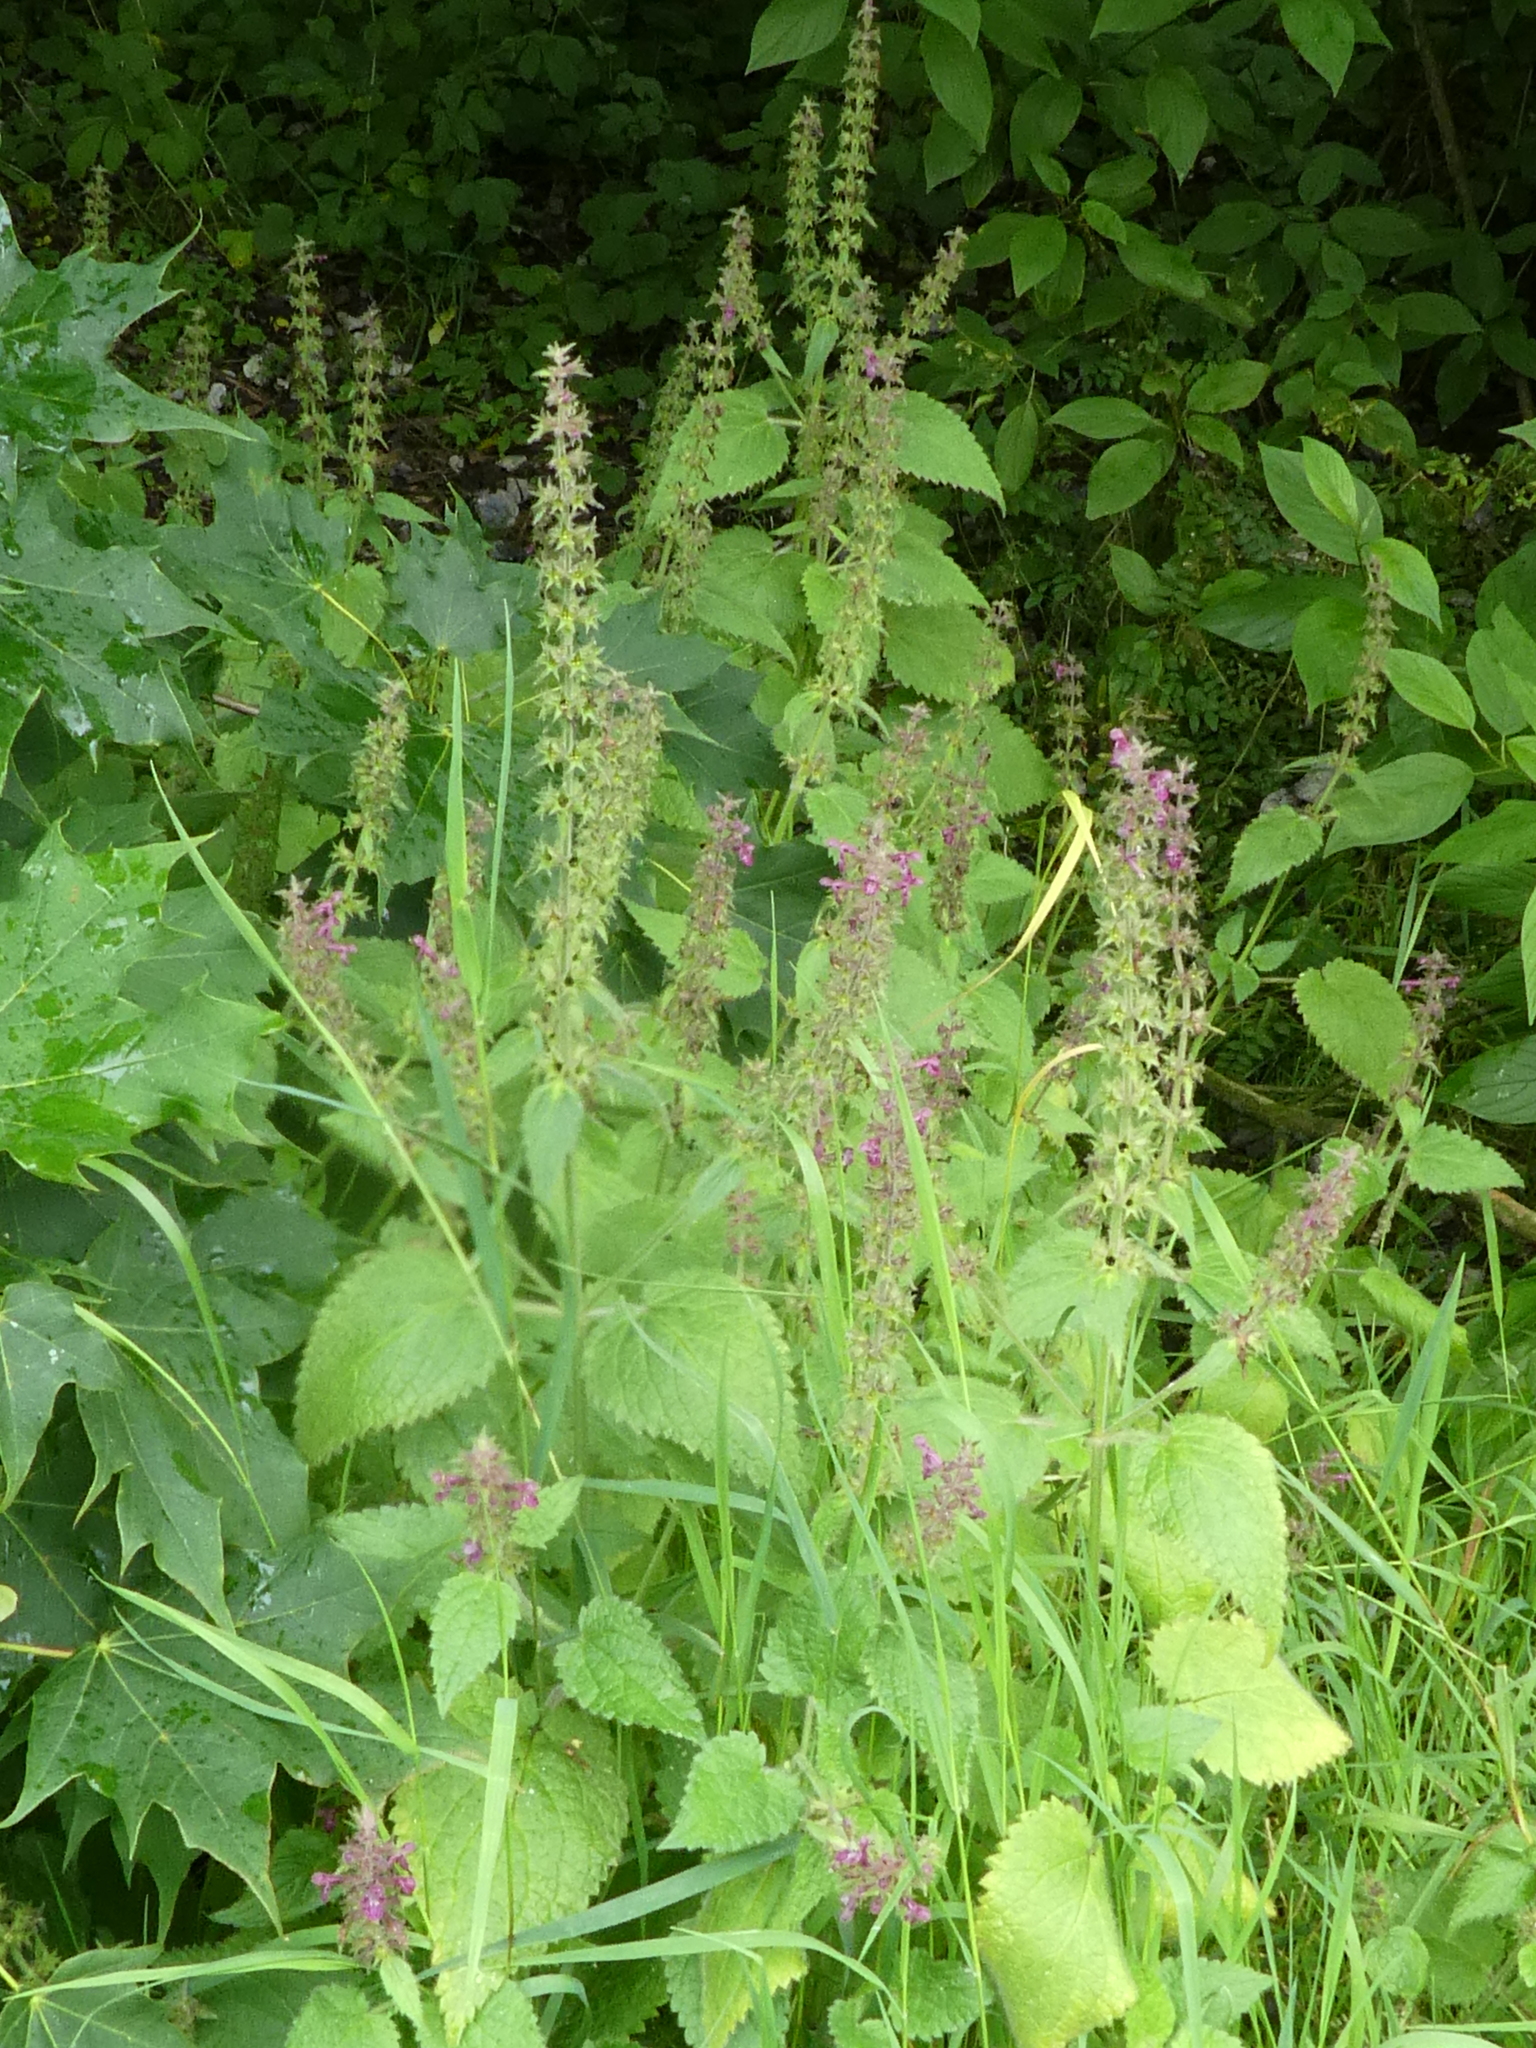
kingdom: Plantae
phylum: Tracheophyta
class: Magnoliopsida
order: Lamiales
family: Lamiaceae
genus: Stachys
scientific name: Stachys sylvatica
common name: Hedge woundwort
